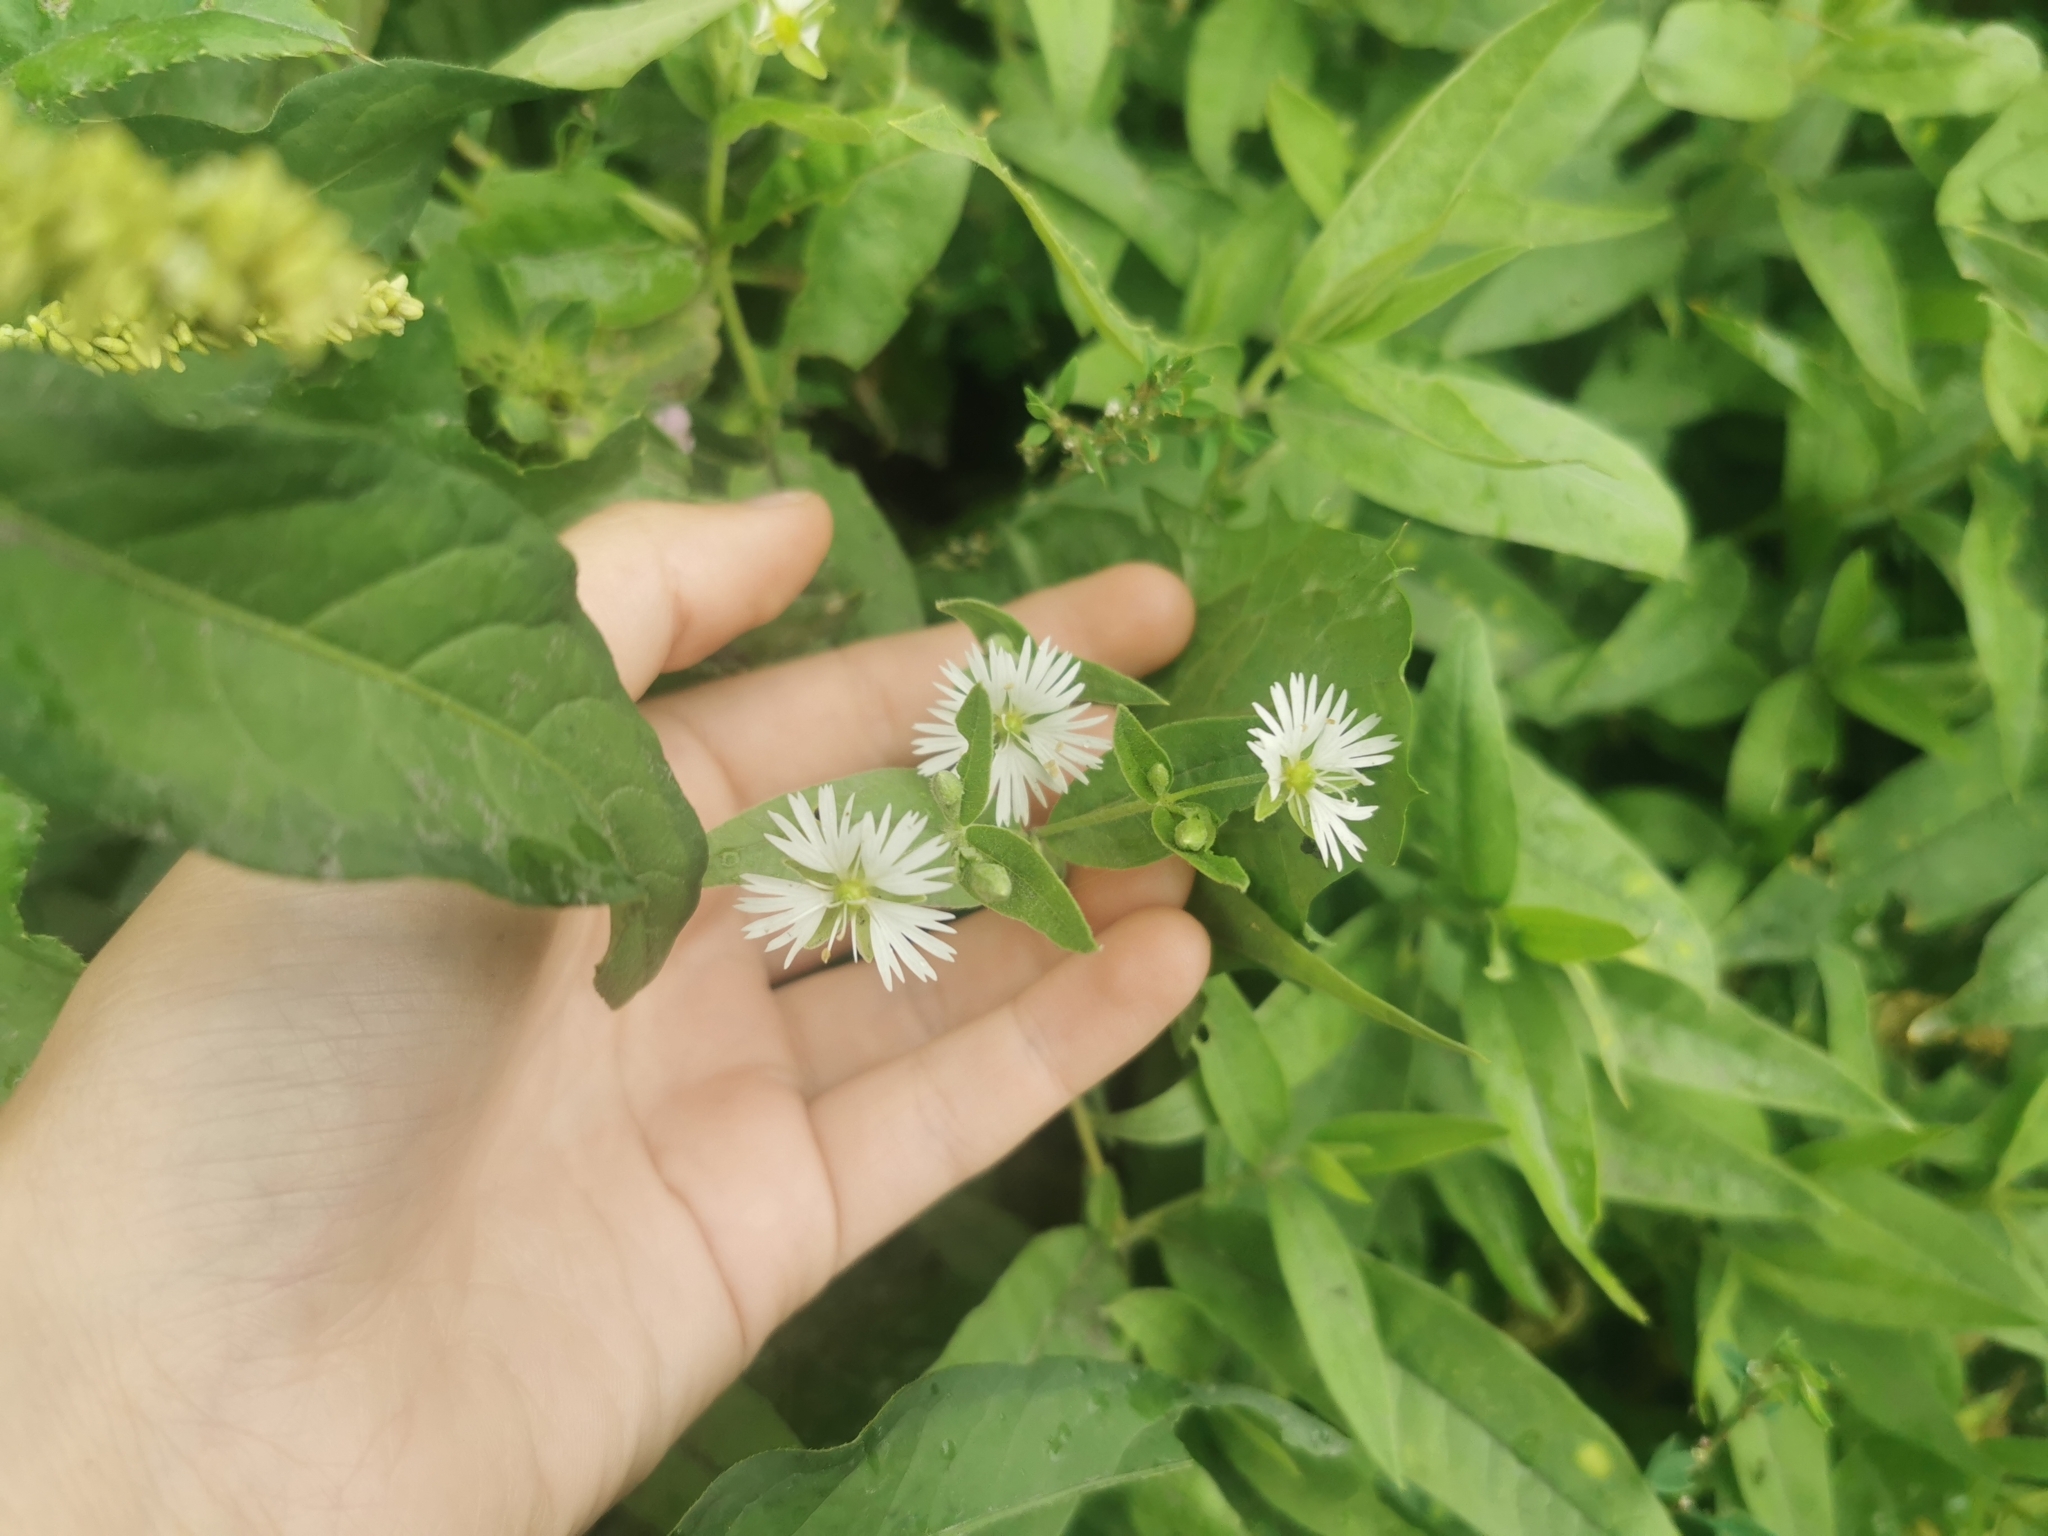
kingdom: Plantae
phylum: Tracheophyta
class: Magnoliopsida
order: Caryophyllales
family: Caryophyllaceae
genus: Stellaria
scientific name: Stellaria radians
